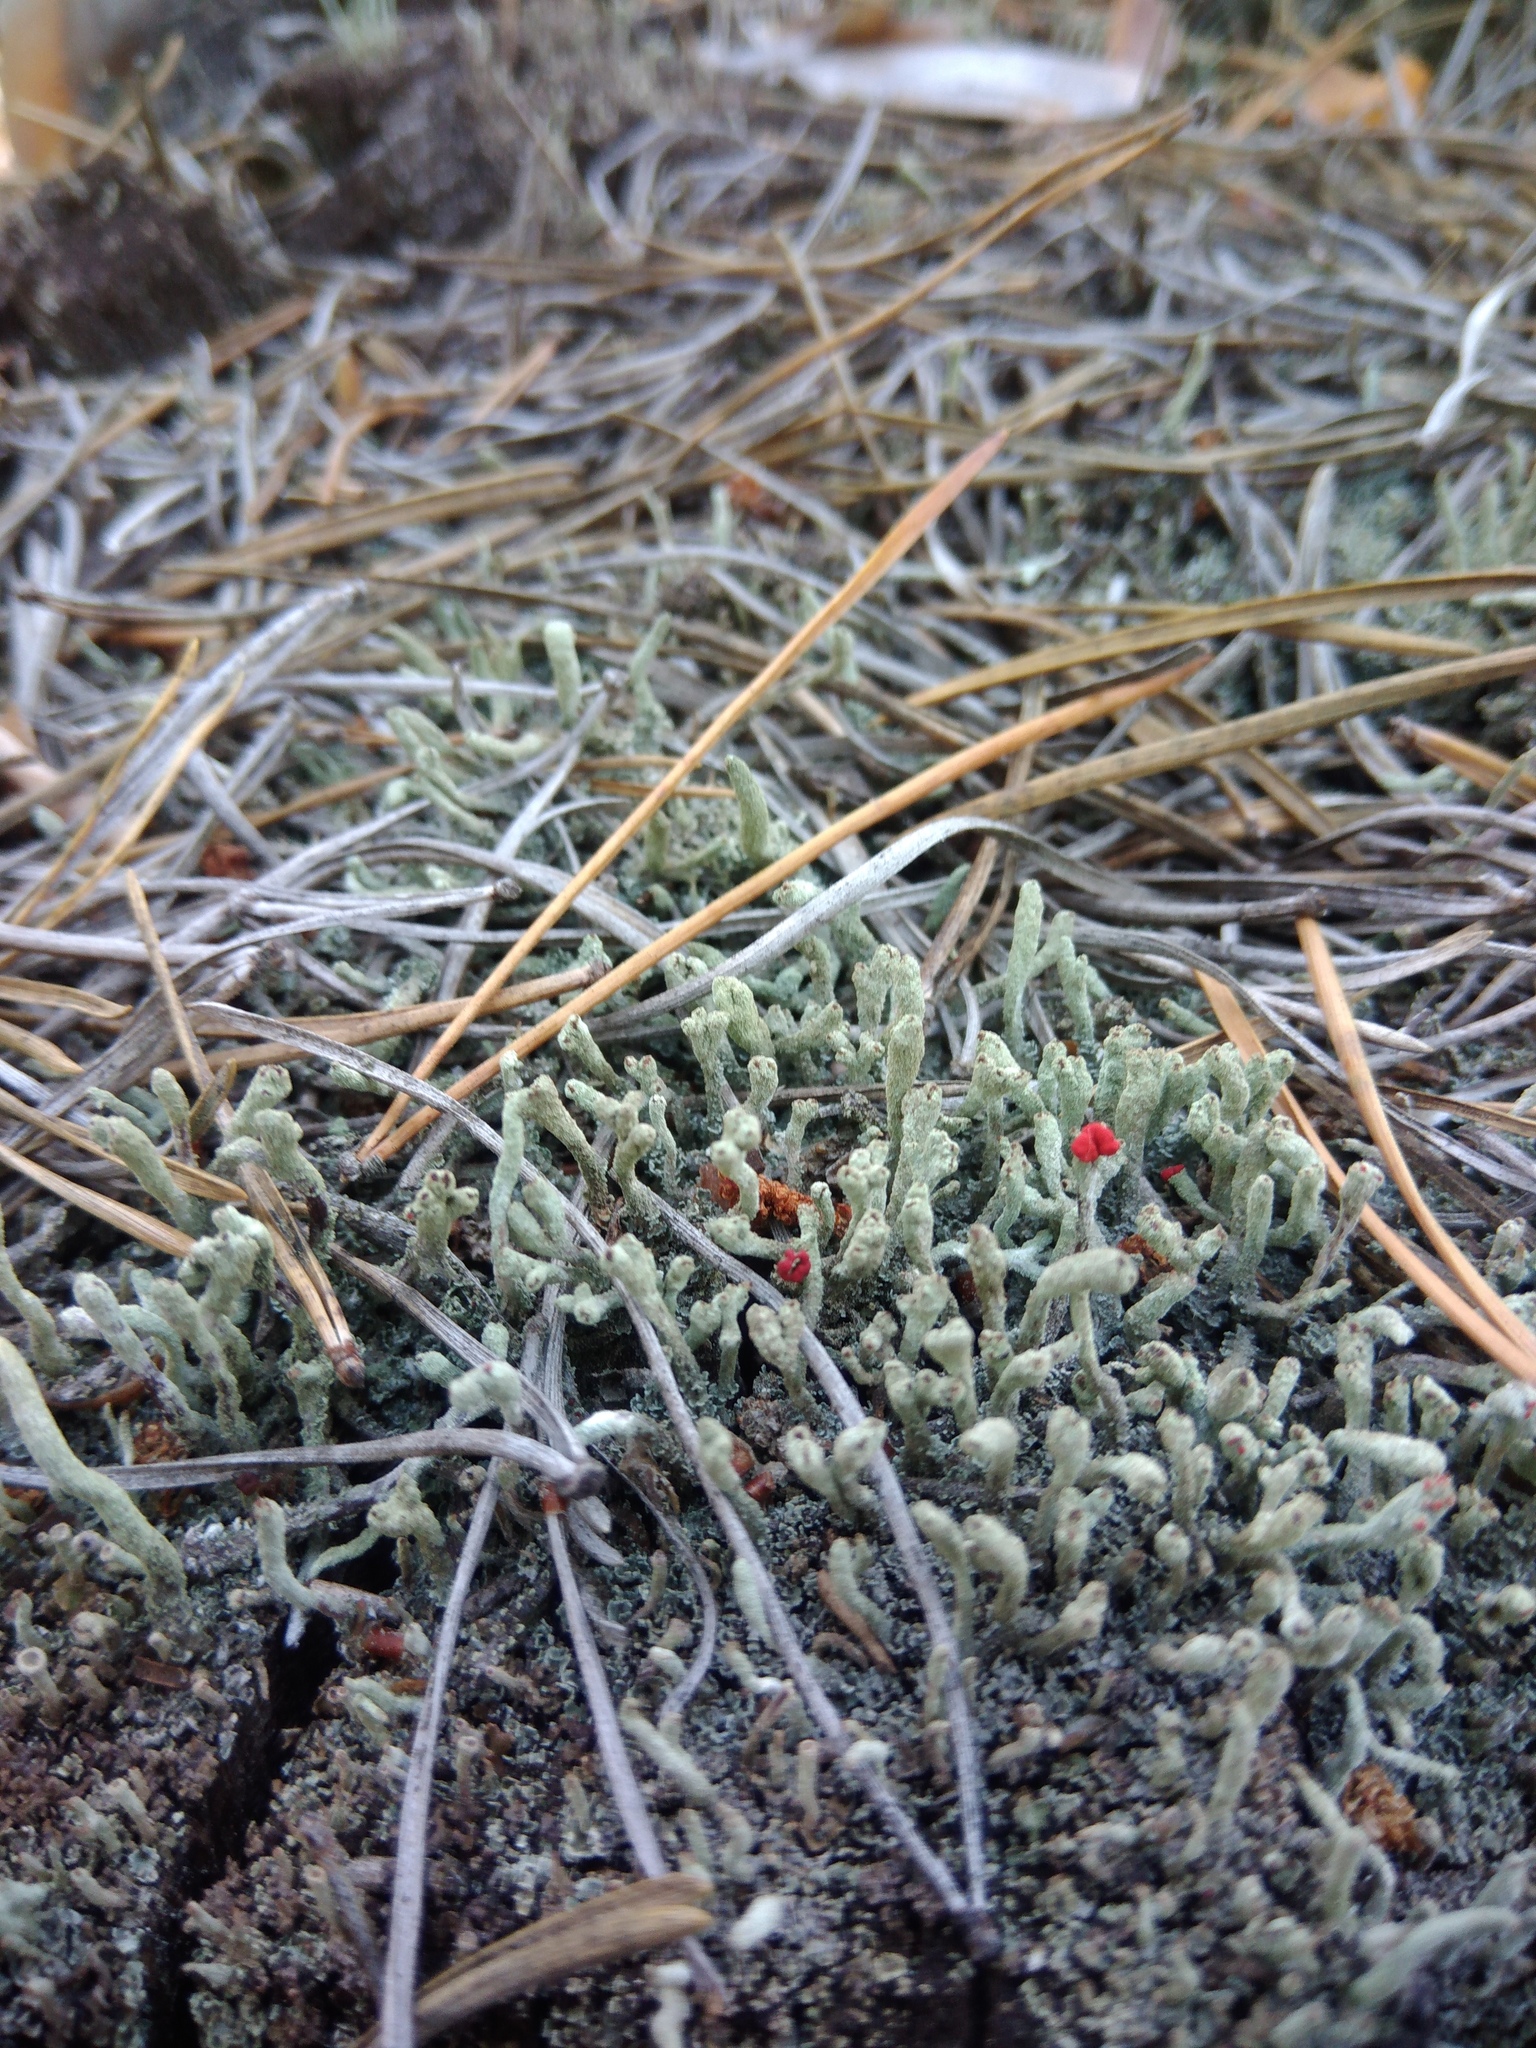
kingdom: Fungi
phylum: Ascomycota
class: Lecanoromycetes
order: Lecanorales
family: Cladoniaceae
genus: Cladonia
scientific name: Cladonia macilenta
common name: Lipstick powderhorn
